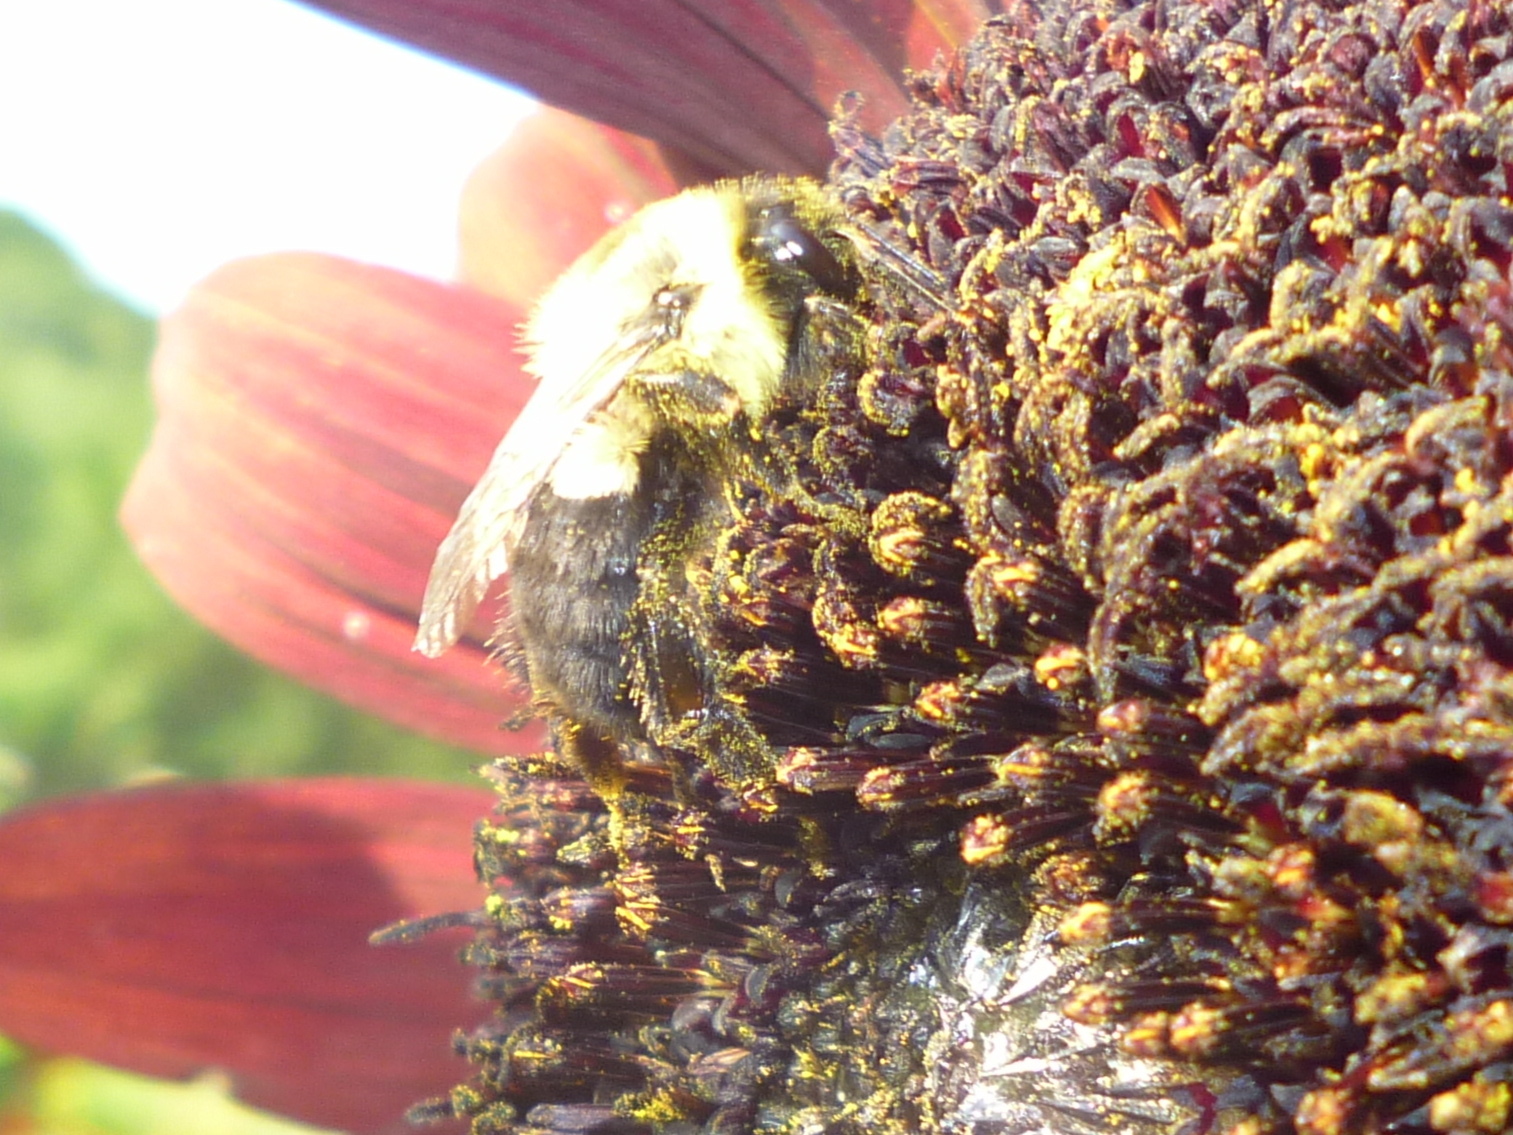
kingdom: Animalia
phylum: Arthropoda
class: Insecta
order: Hymenoptera
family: Apidae
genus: Bombus
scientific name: Bombus impatiens
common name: Common eastern bumble bee
